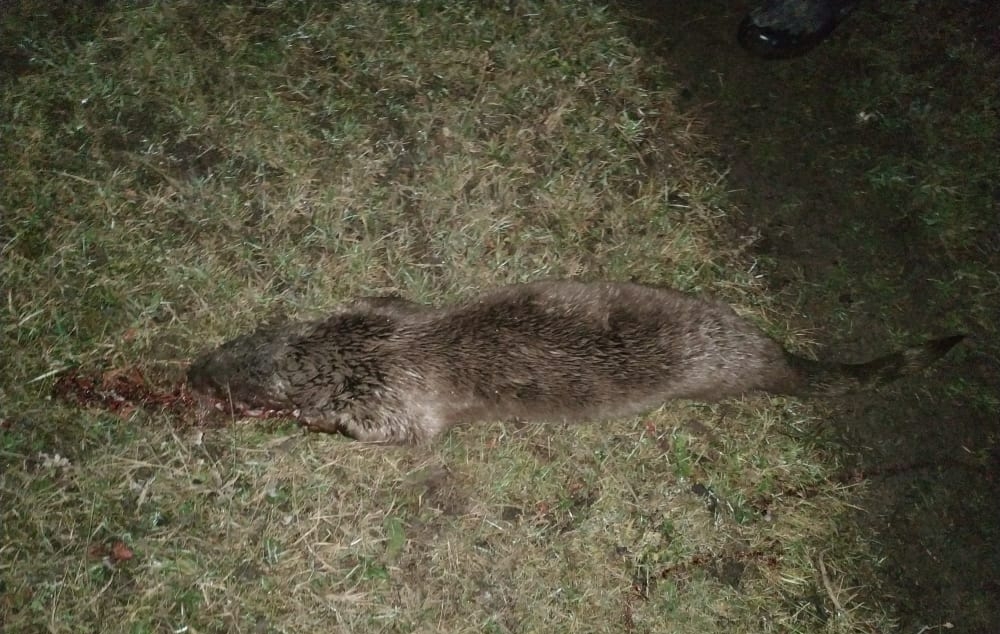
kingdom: Animalia
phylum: Chordata
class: Mammalia
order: Carnivora
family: Mustelidae
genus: Lutra
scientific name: Lutra lutra
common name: European otter
